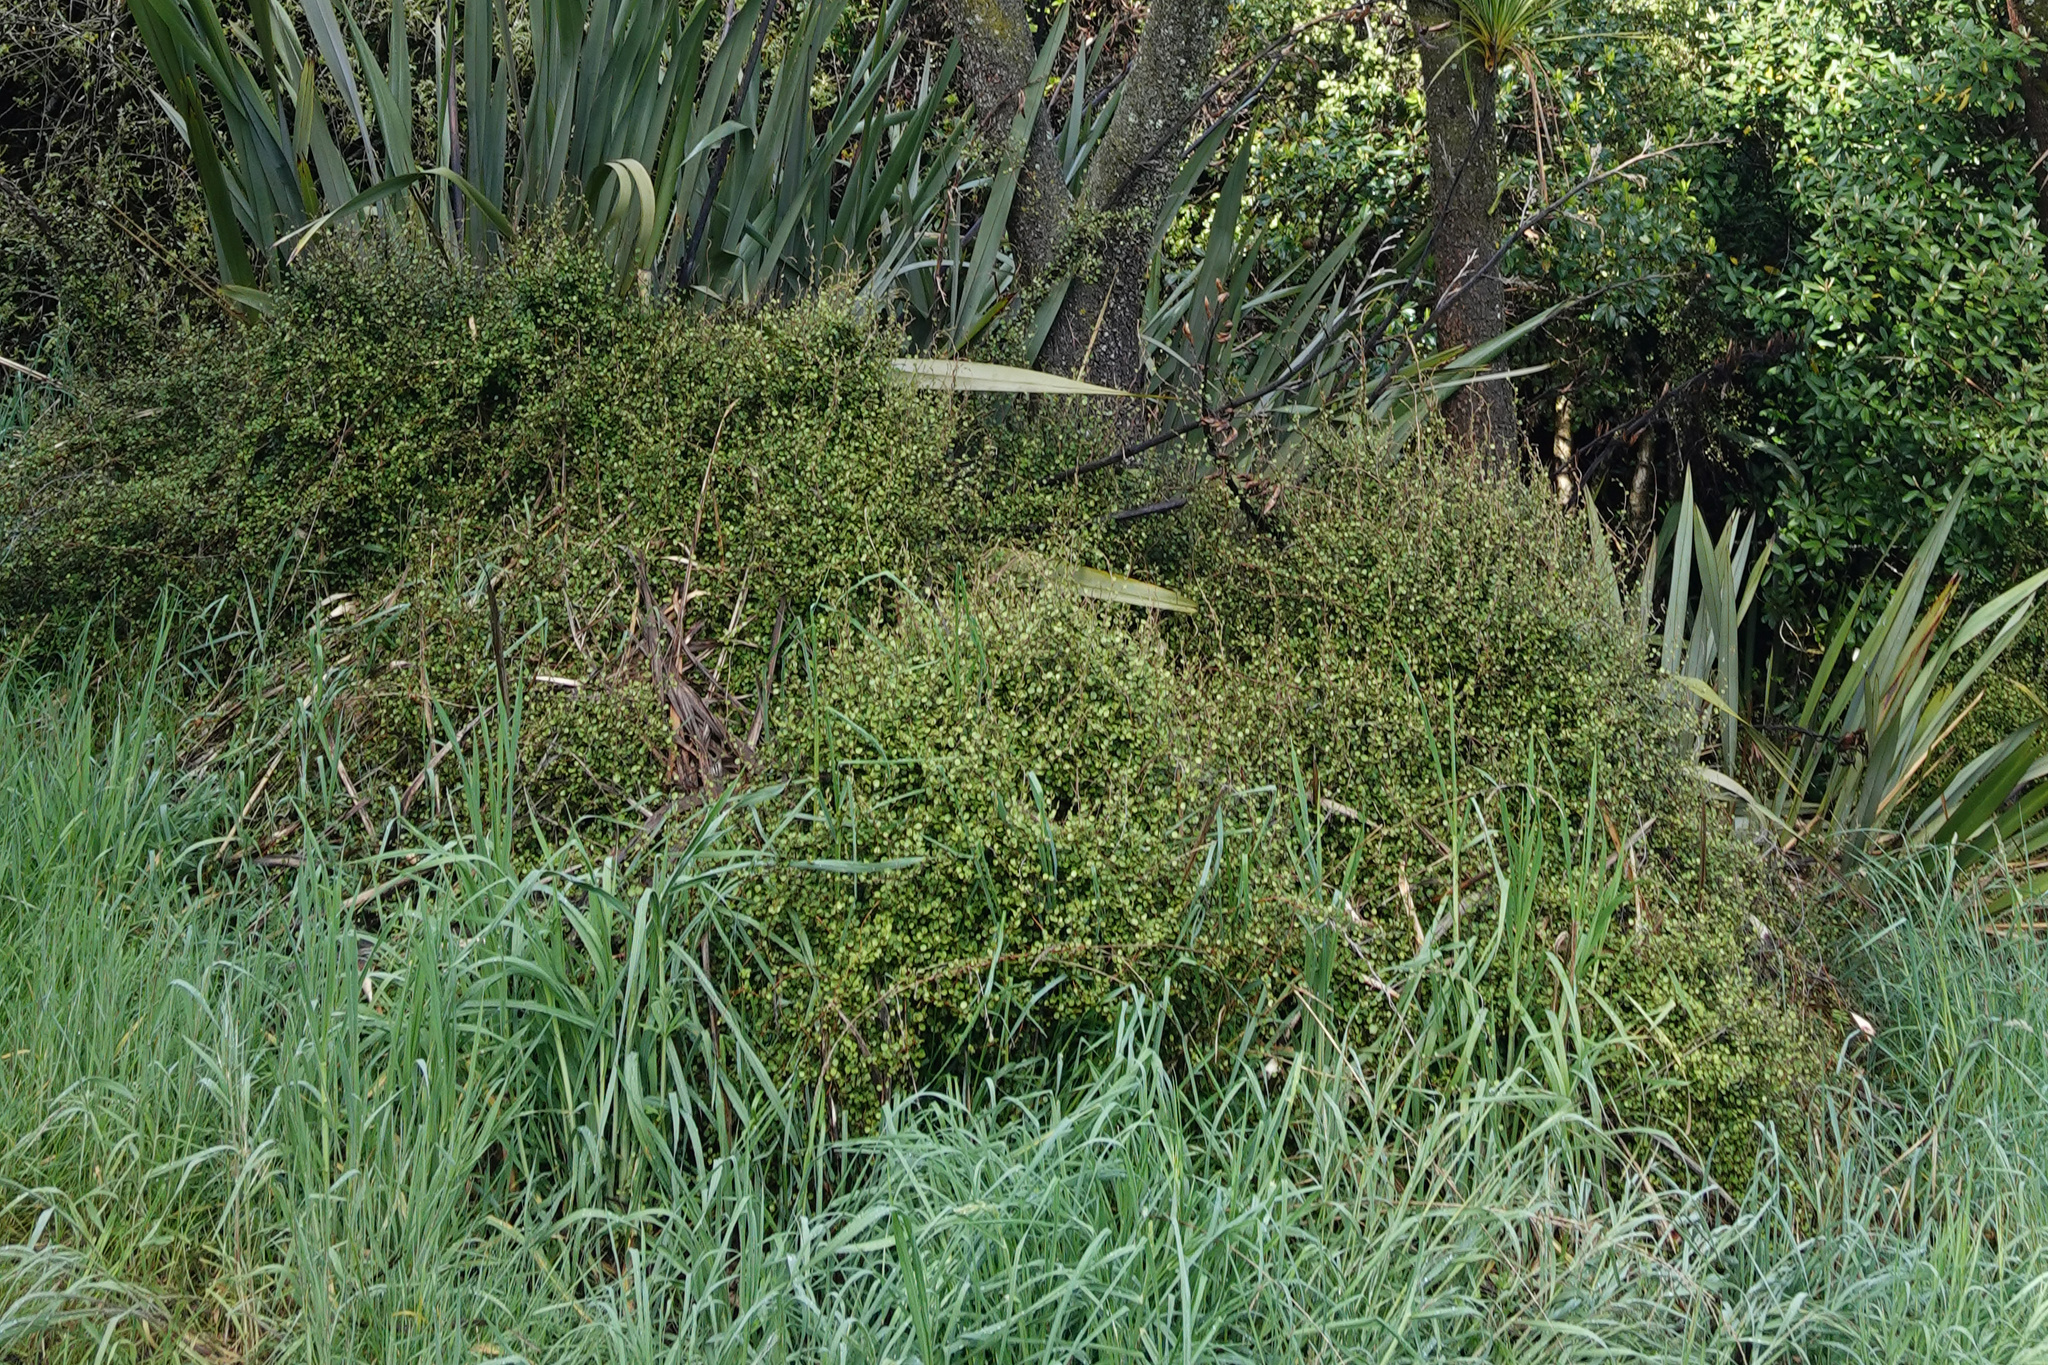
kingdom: Plantae
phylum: Tracheophyta
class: Magnoliopsida
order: Caryophyllales
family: Polygonaceae
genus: Muehlenbeckia
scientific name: Muehlenbeckia complexa
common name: Wireplant
